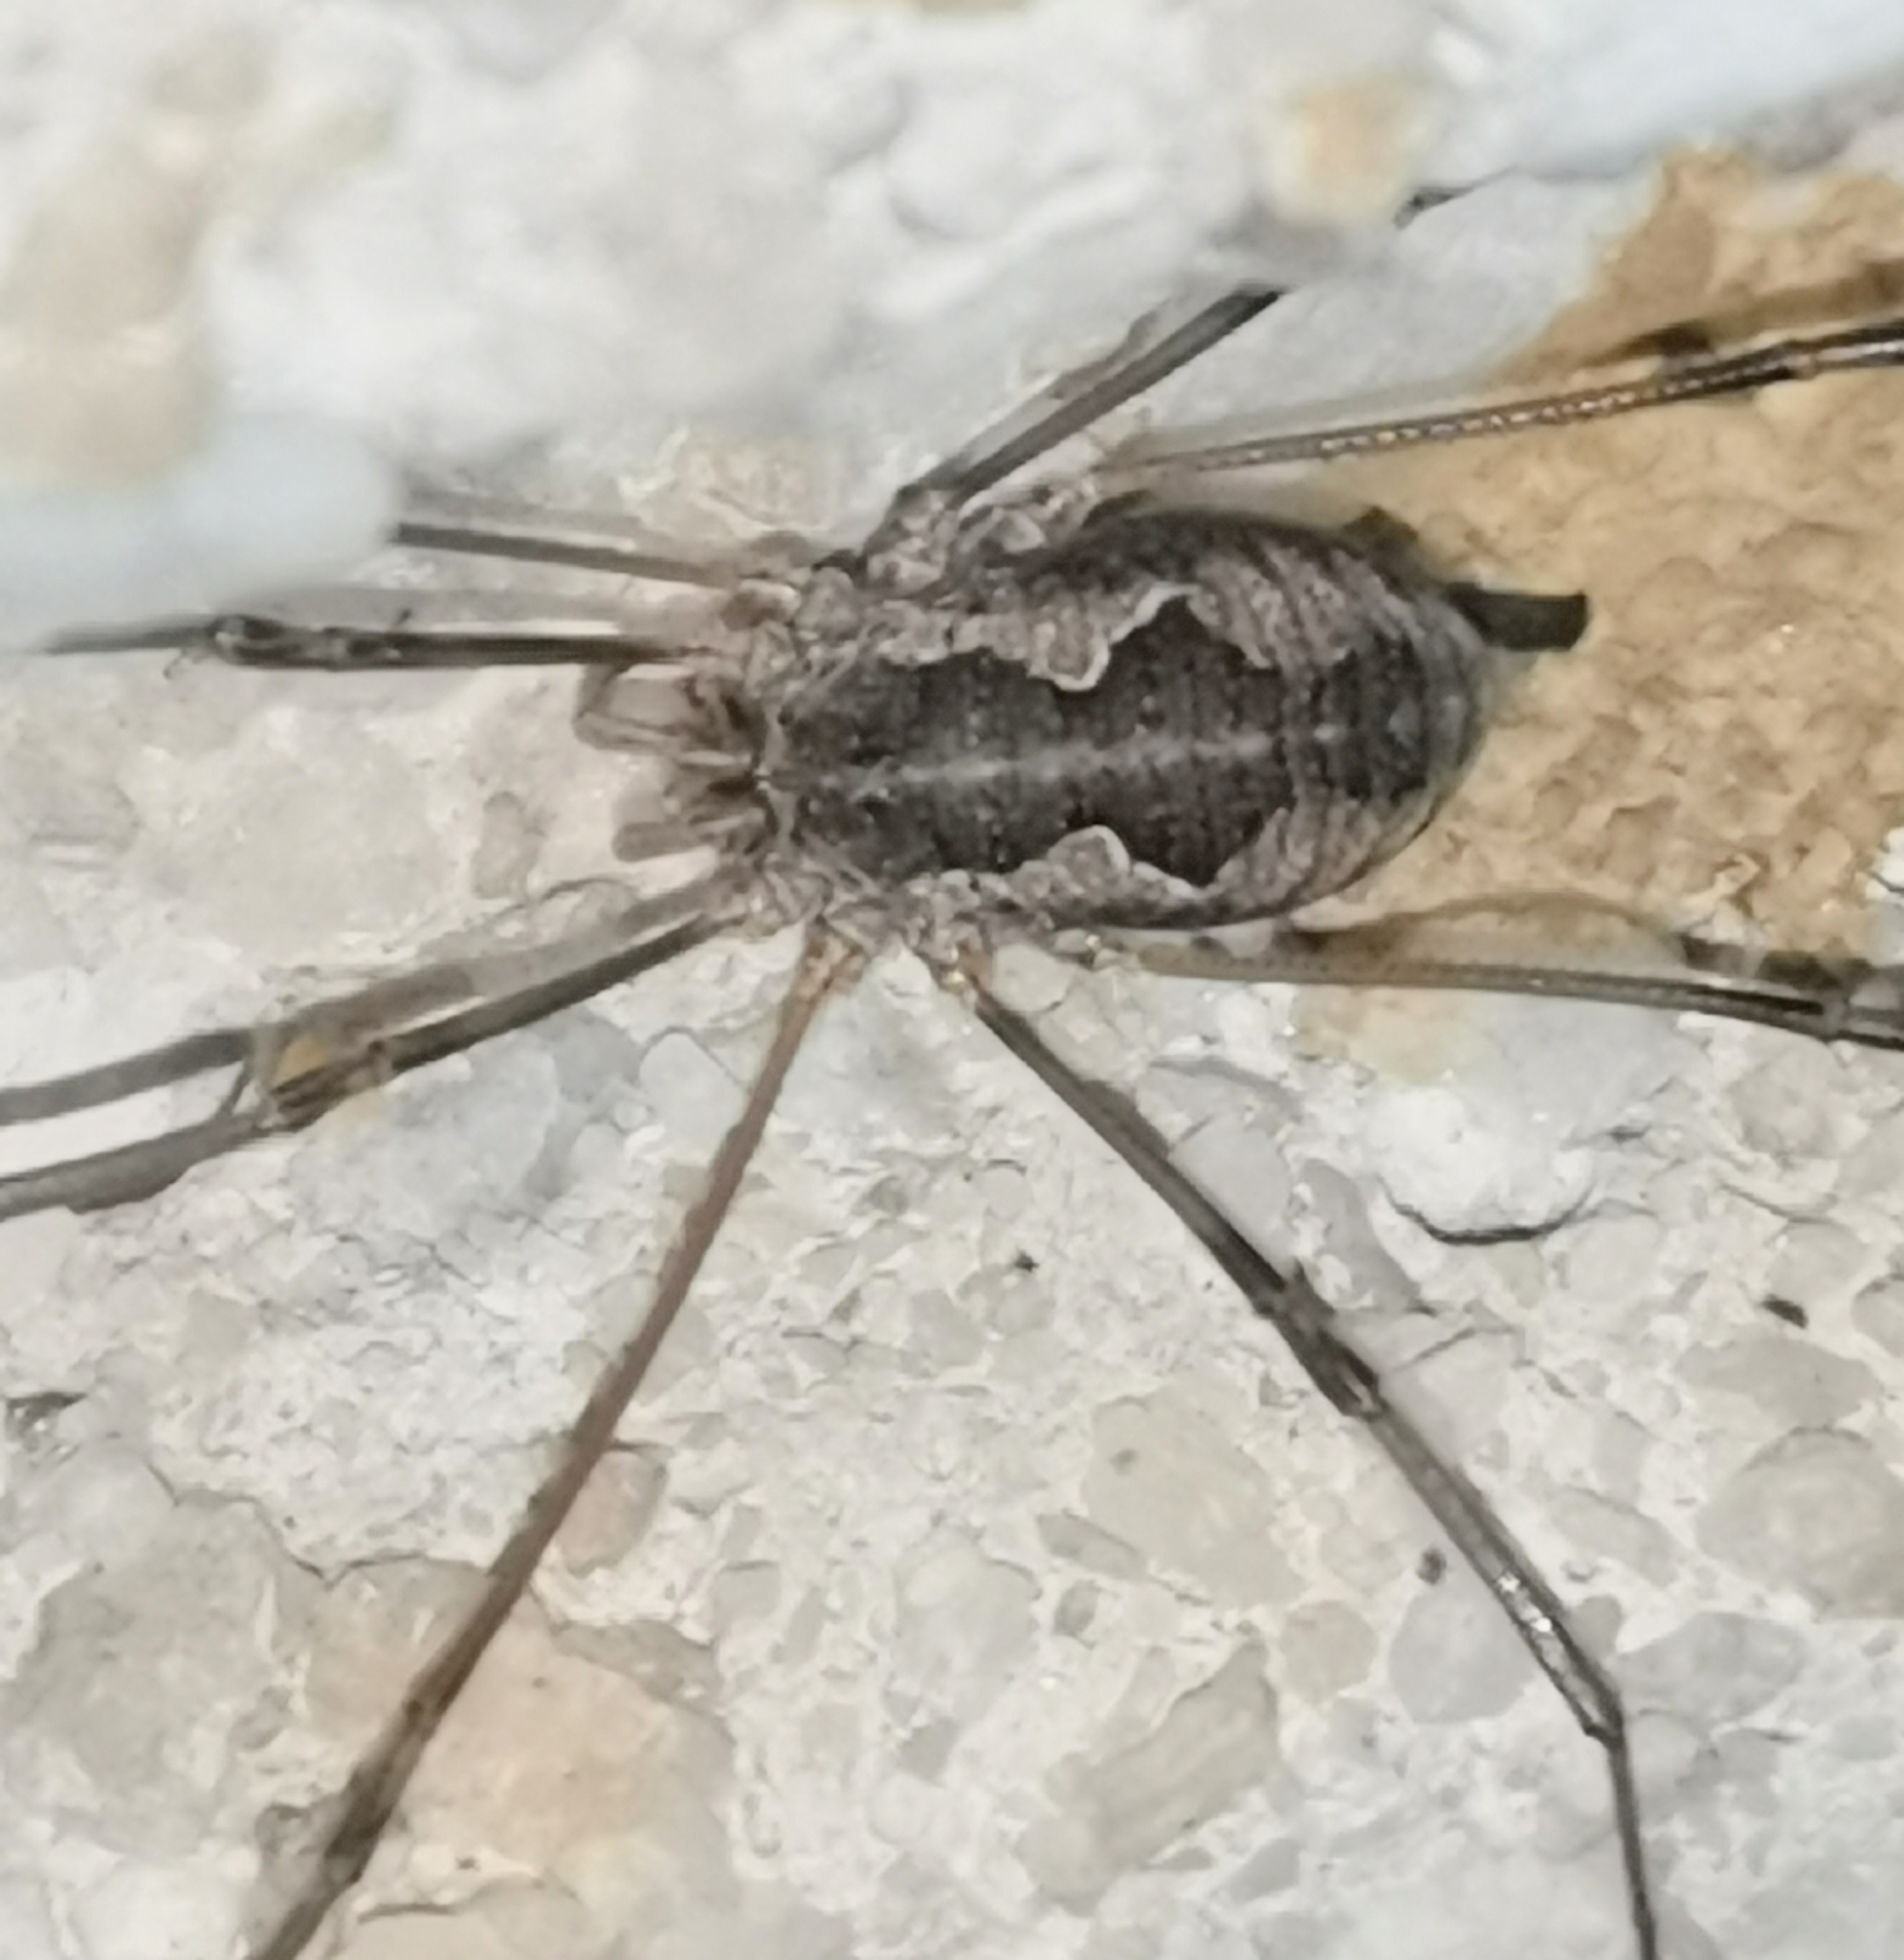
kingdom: Animalia
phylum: Arthropoda
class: Arachnida
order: Opiliones
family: Phalangiidae
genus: Phalangium
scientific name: Phalangium opilio
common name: Daddy longleg
